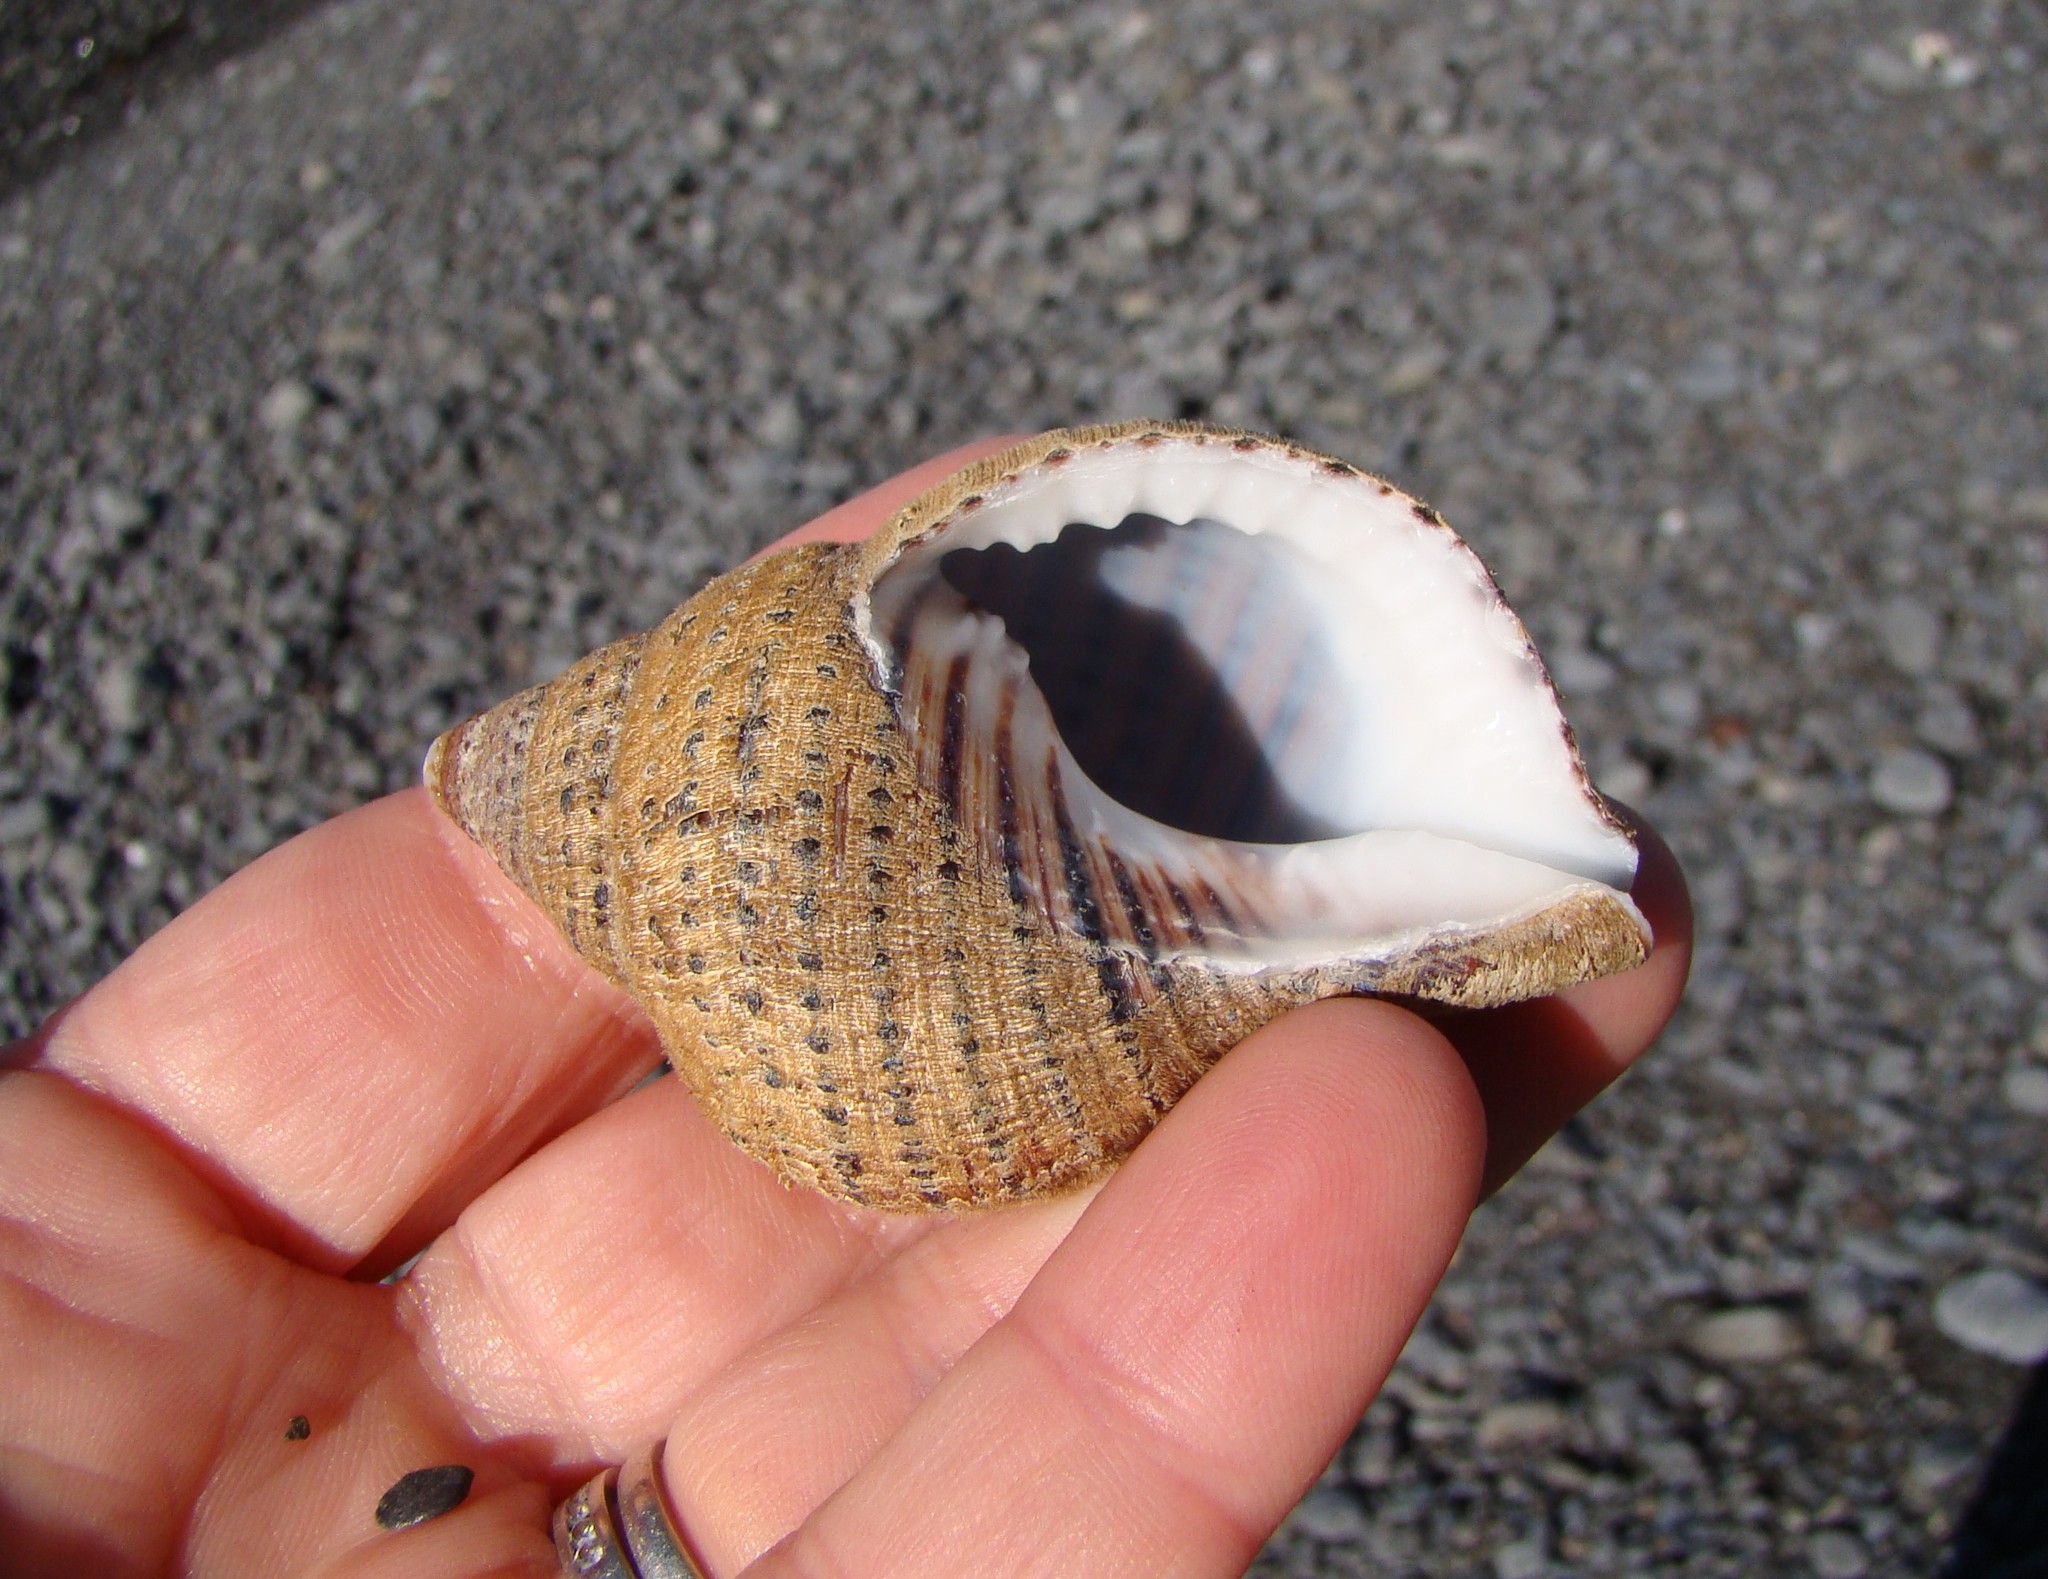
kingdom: Animalia
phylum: Mollusca
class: Gastropoda
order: Littorinimorpha
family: Cymatiidae
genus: Argobuccinum
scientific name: Argobuccinum pustulosum
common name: Pustular triton
